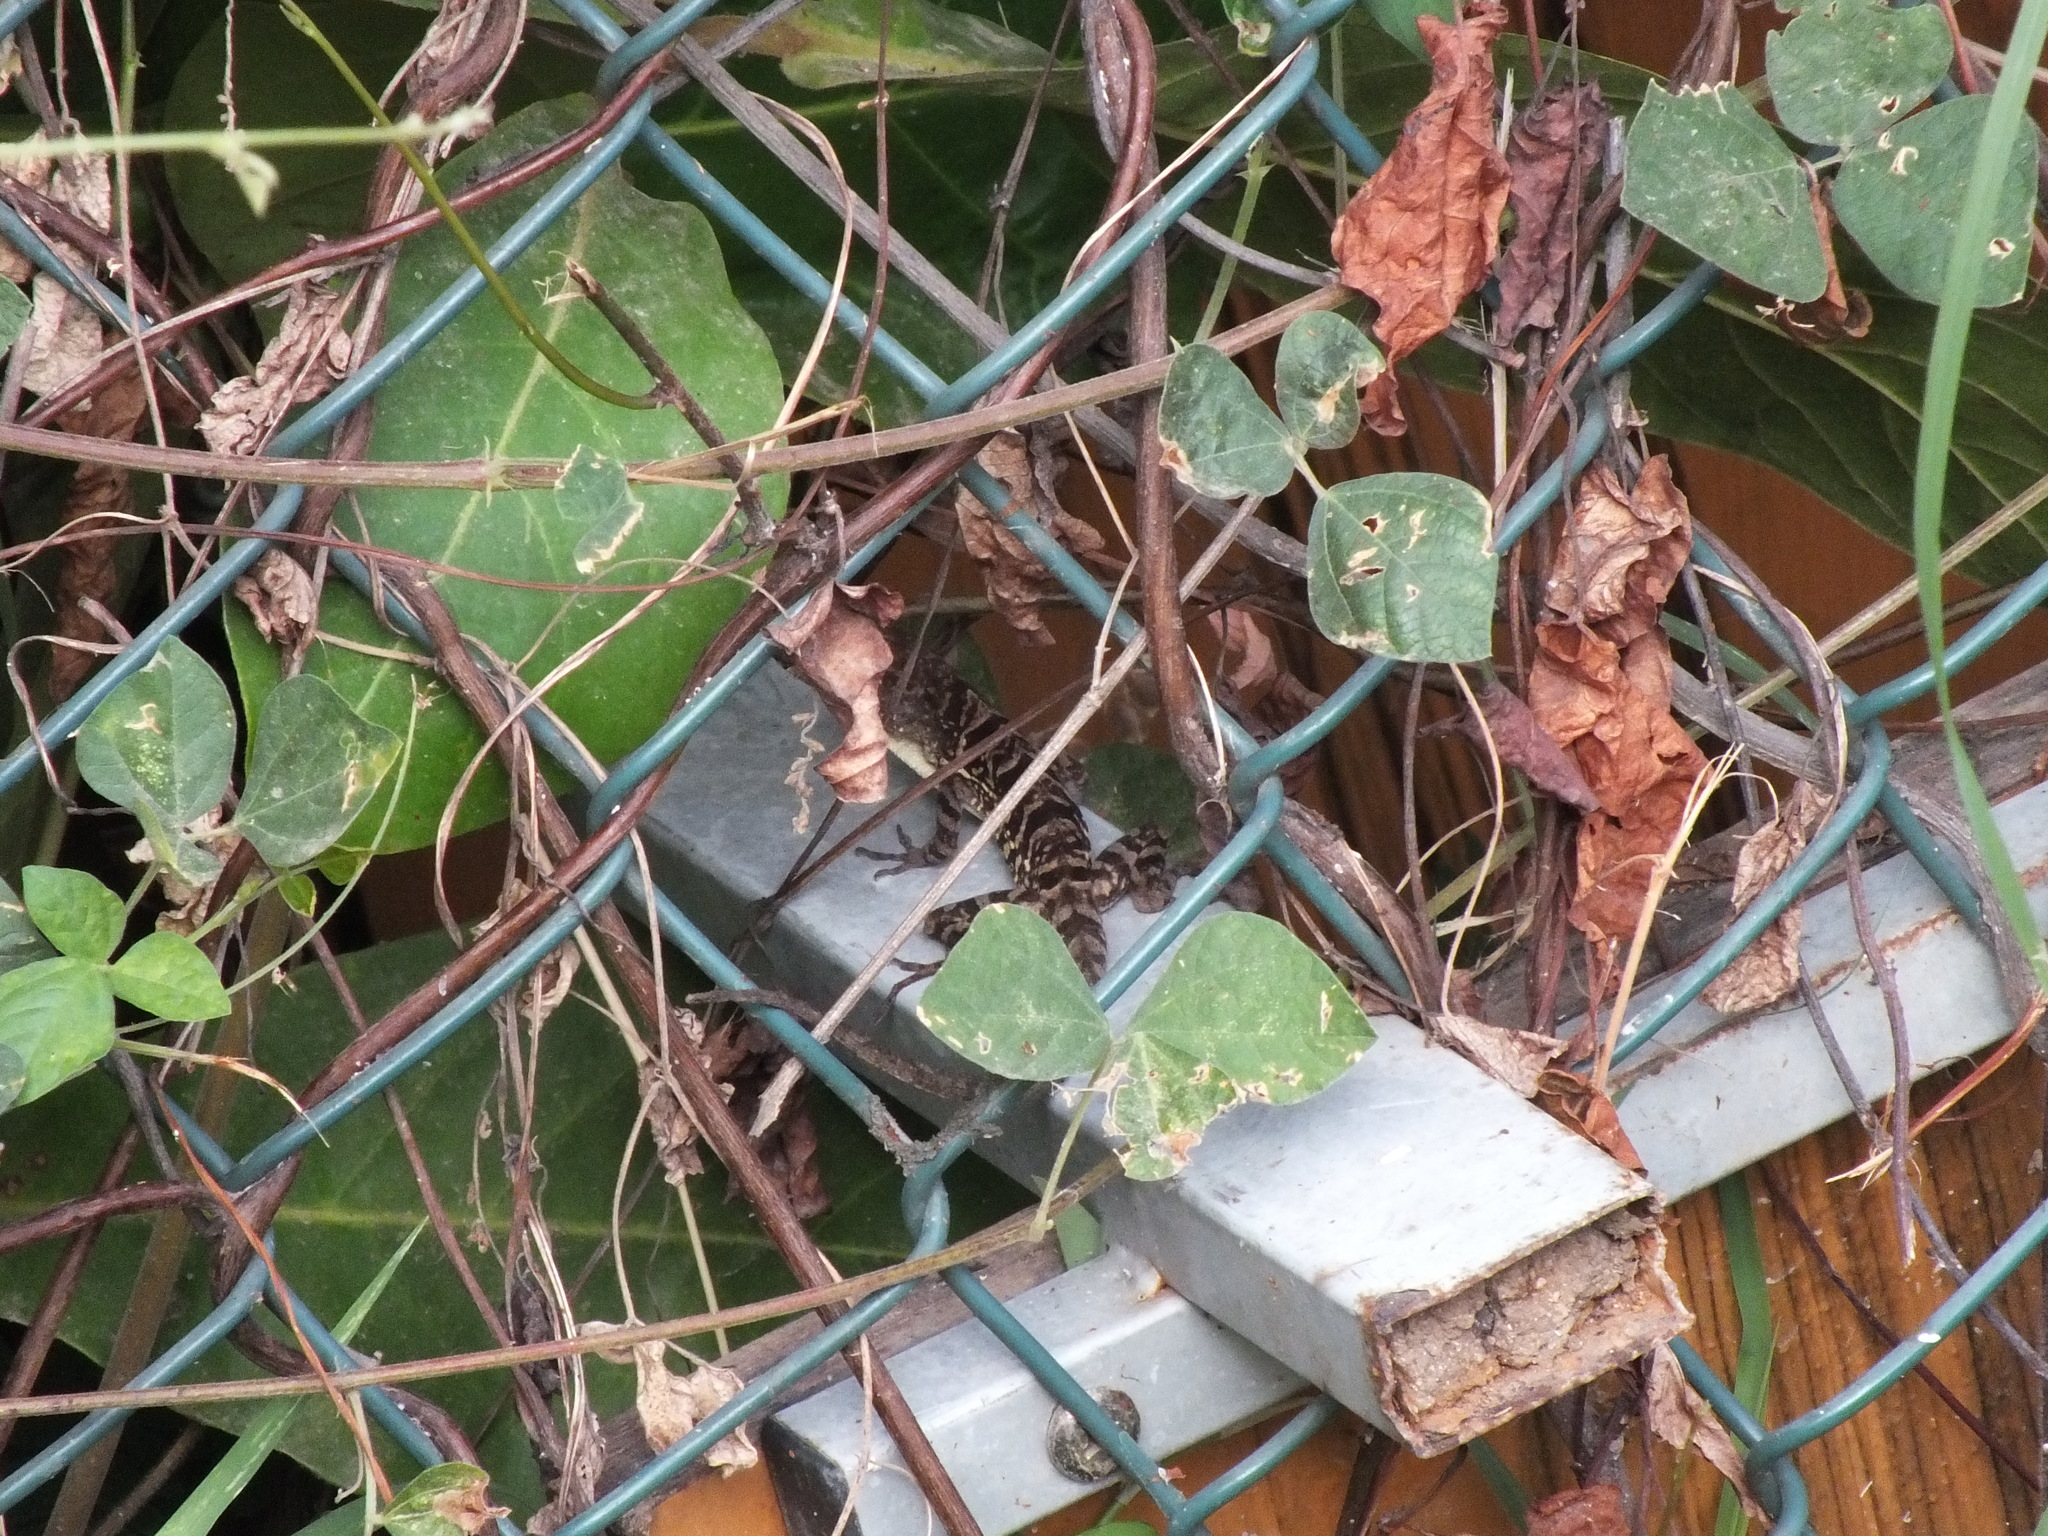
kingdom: Animalia
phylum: Chordata
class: Squamata
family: Dactyloidae
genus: Anolis
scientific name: Anolis lineatopus
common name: Stripefoot anole
